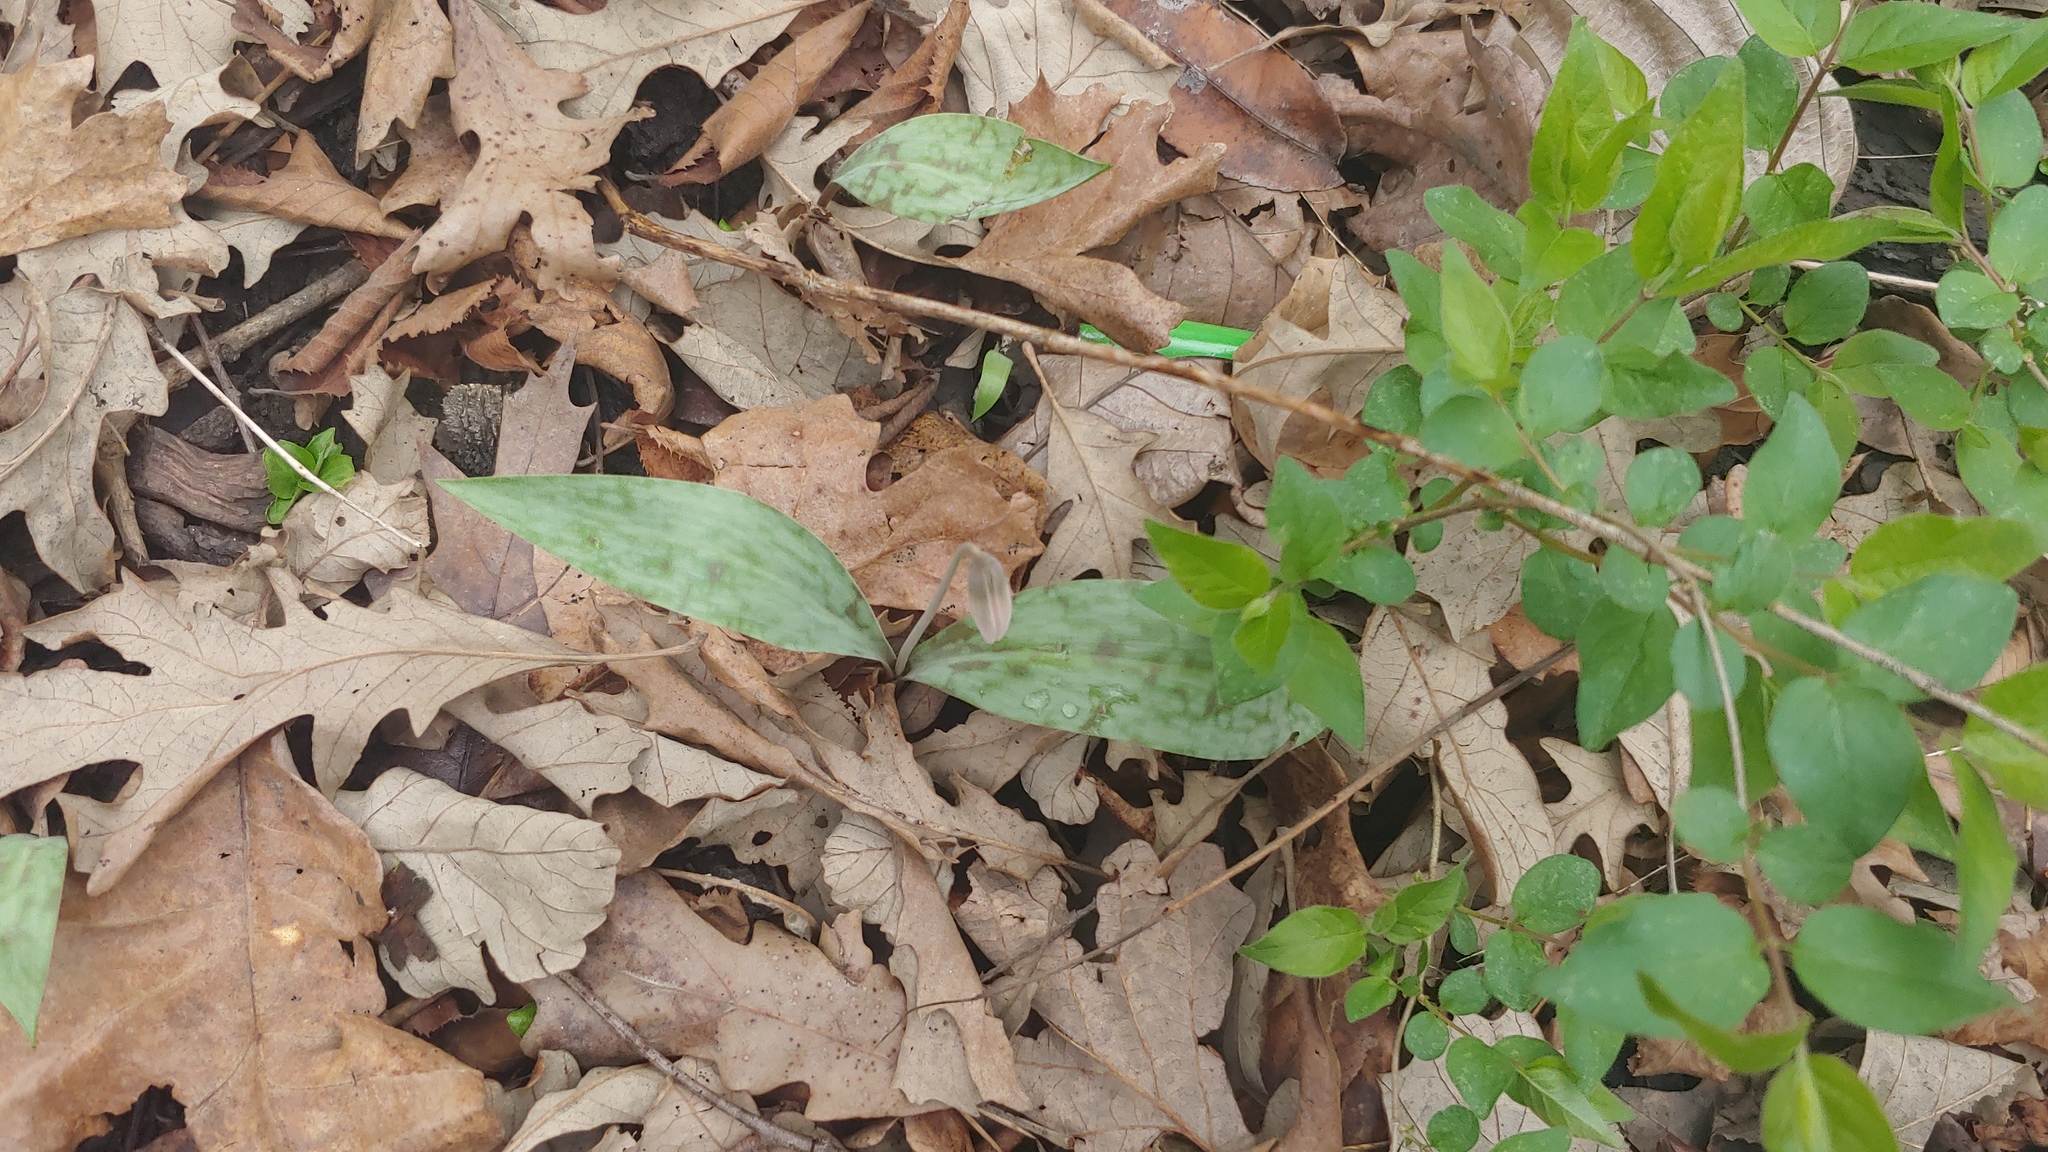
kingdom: Plantae
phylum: Tracheophyta
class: Liliopsida
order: Liliales
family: Liliaceae
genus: Erythronium
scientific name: Erythronium albidum
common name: White trout-lily
